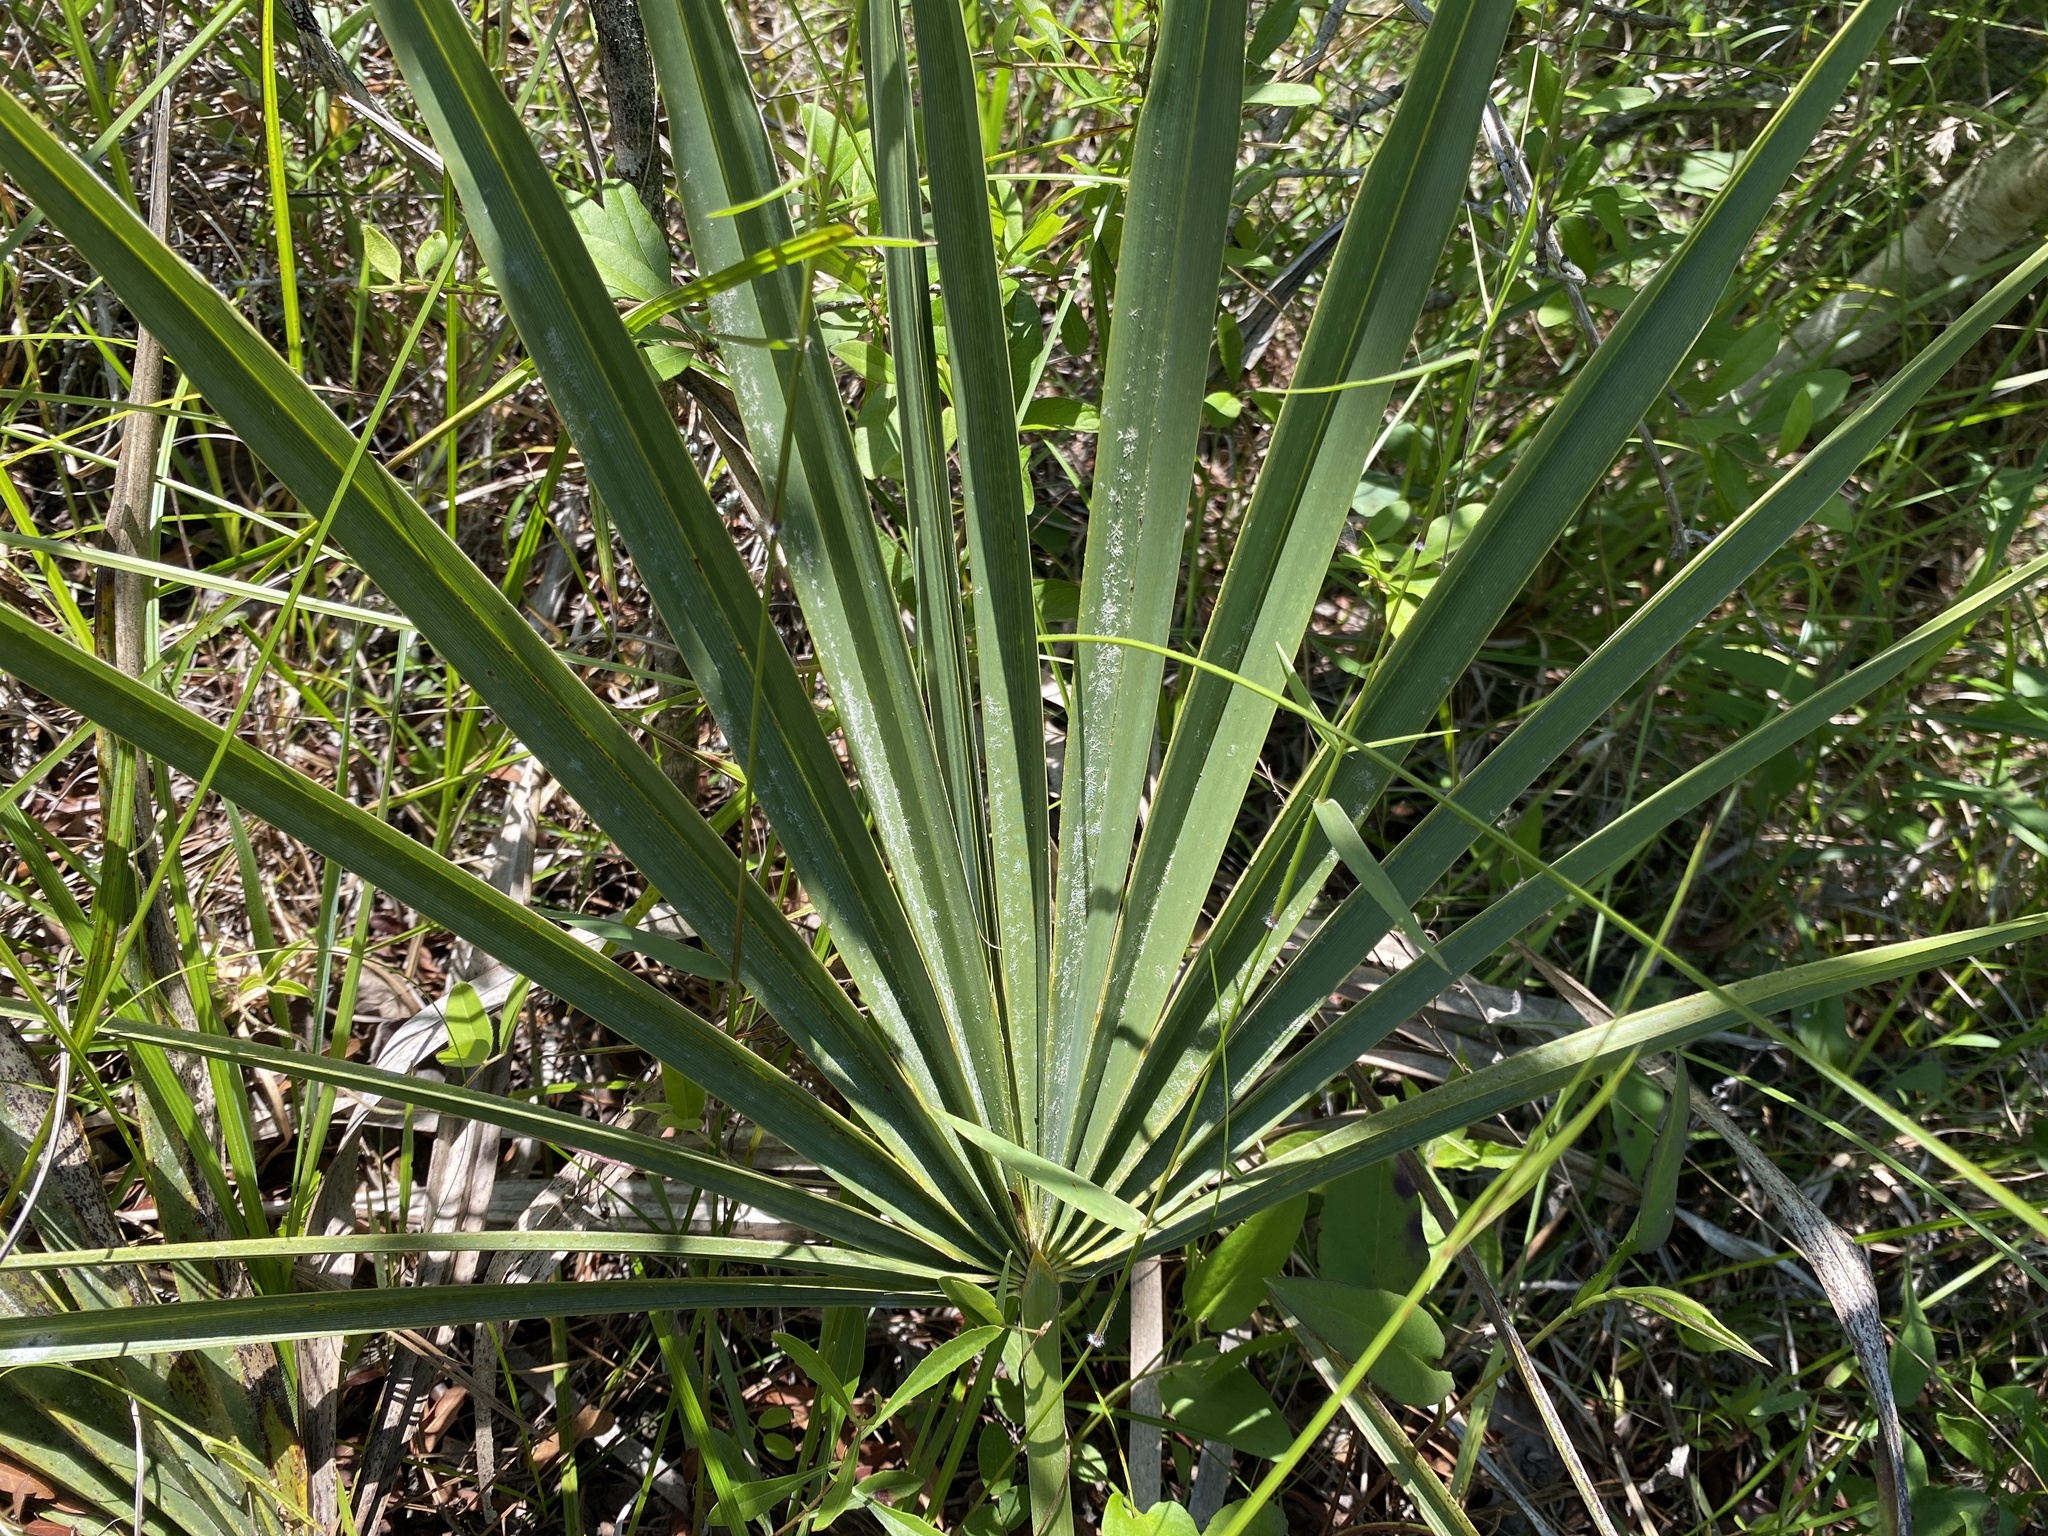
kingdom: Plantae
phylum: Tracheophyta
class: Liliopsida
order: Arecales
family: Arecaceae
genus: Sabal
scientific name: Sabal minor
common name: Dwarf palmetto
